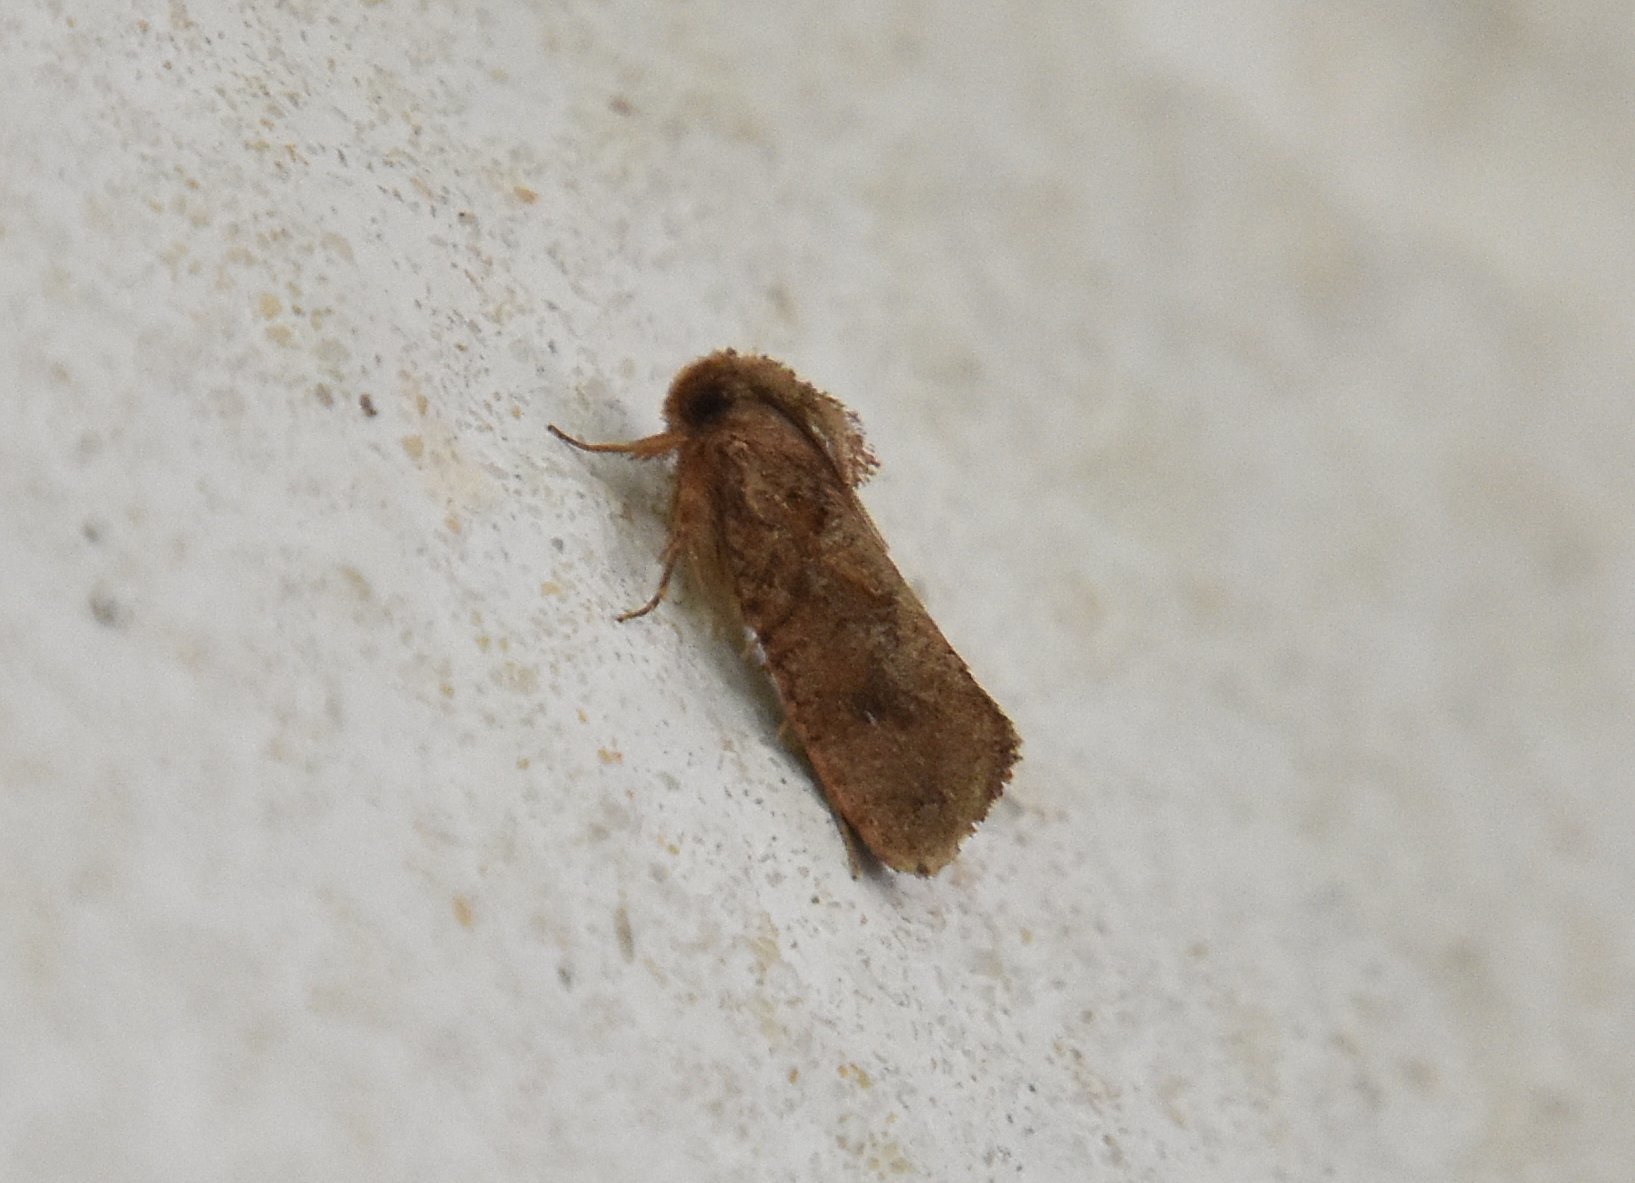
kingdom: Animalia
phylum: Arthropoda
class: Insecta
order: Lepidoptera
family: Tineidae
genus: Acrolophus
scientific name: Acrolophus walsinghami
